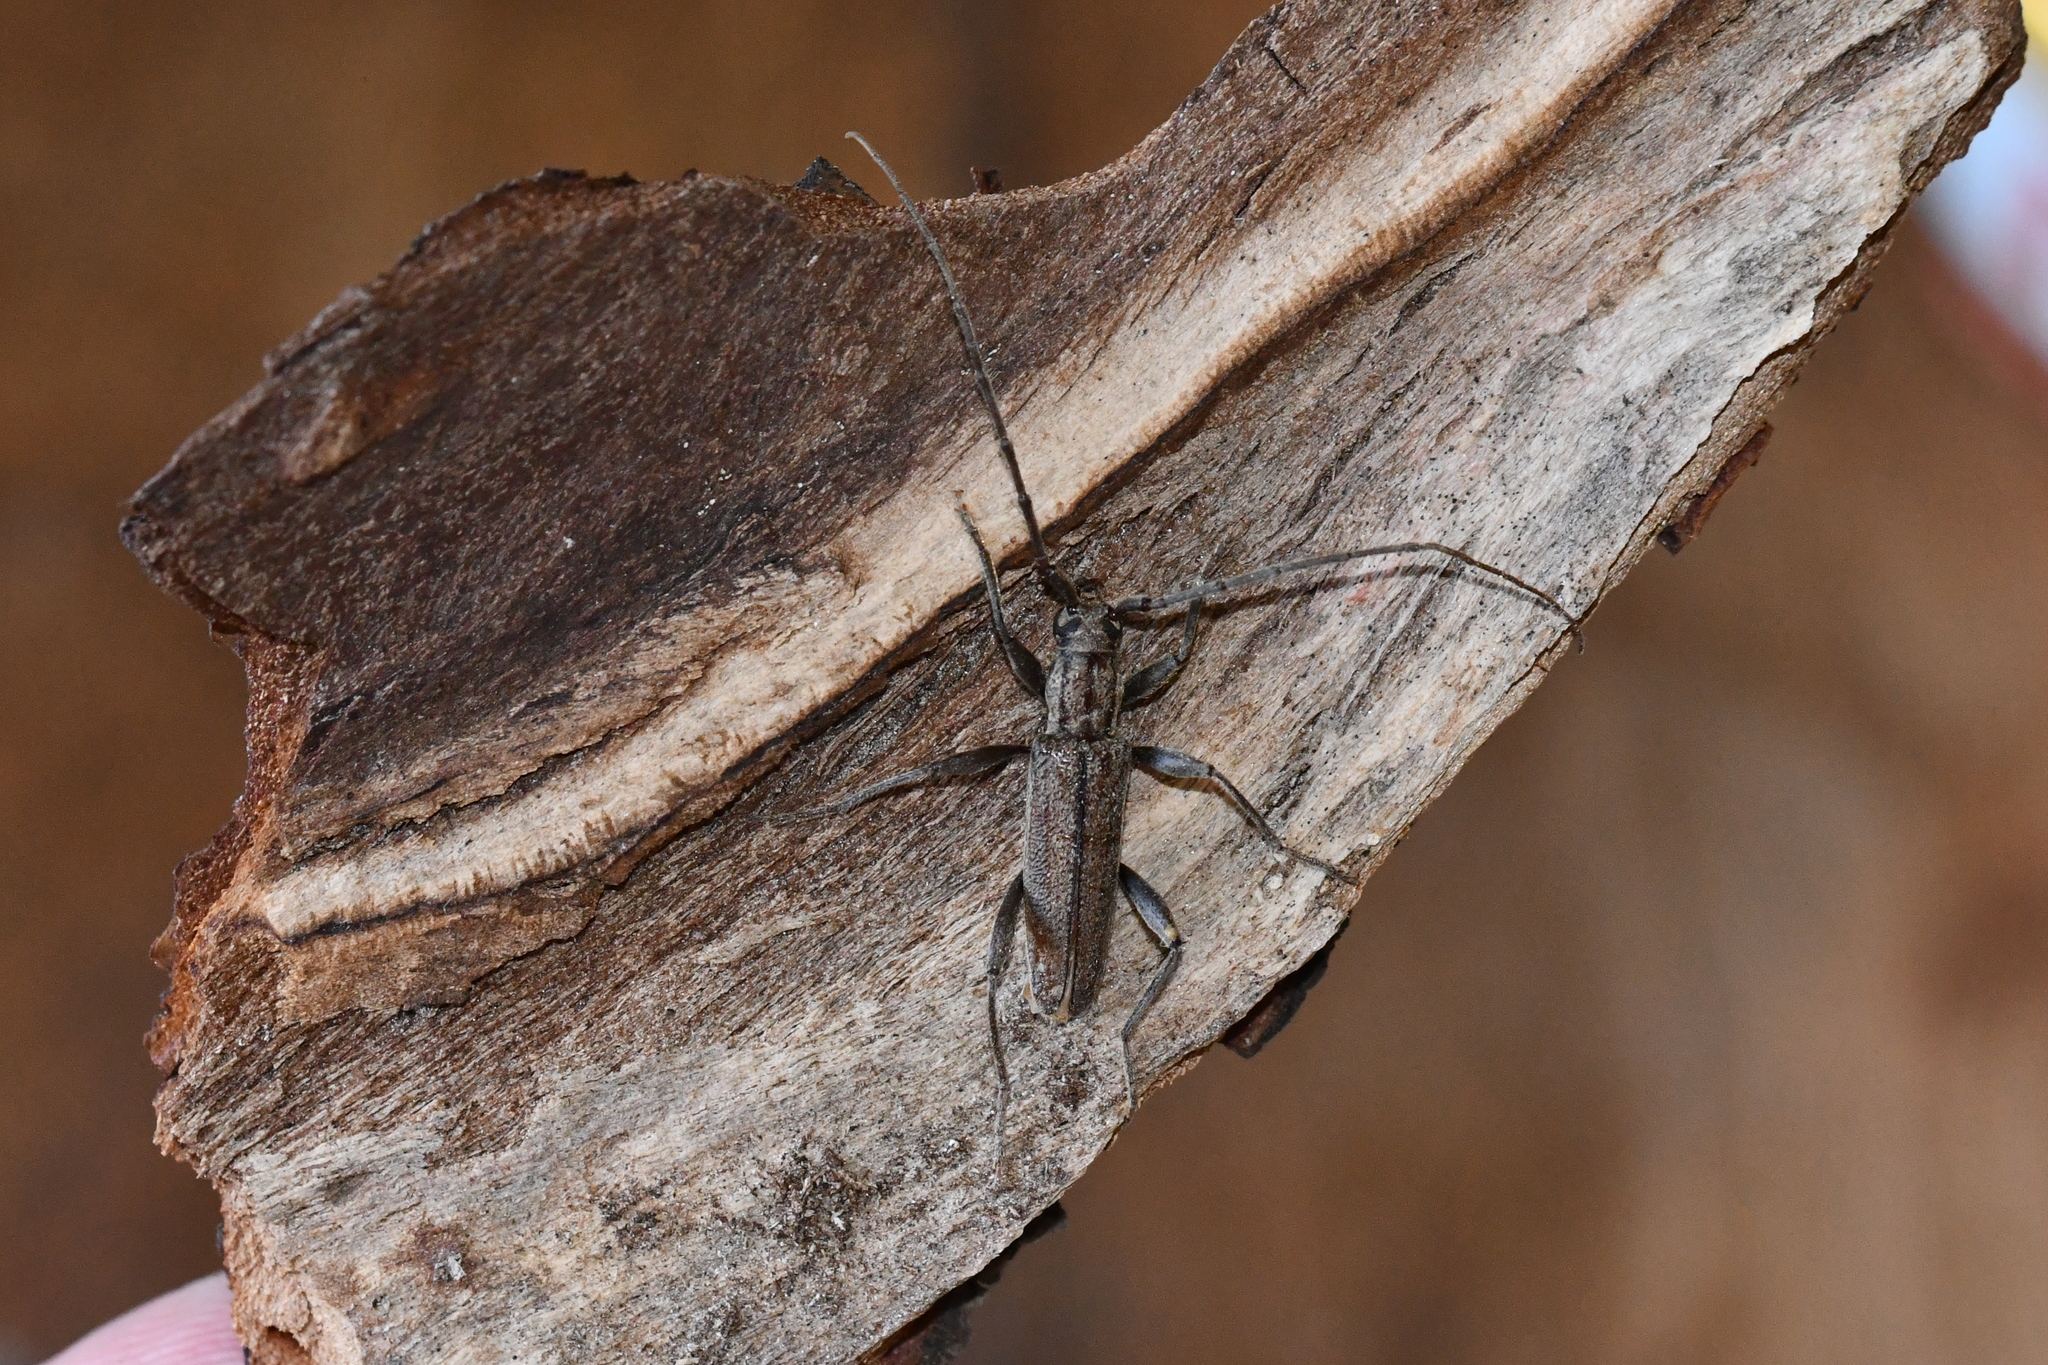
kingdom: Animalia
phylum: Arthropoda
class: Insecta
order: Coleoptera
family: Cerambycidae
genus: Icosium
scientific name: Icosium tomentosum
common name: Longhorn beetle
